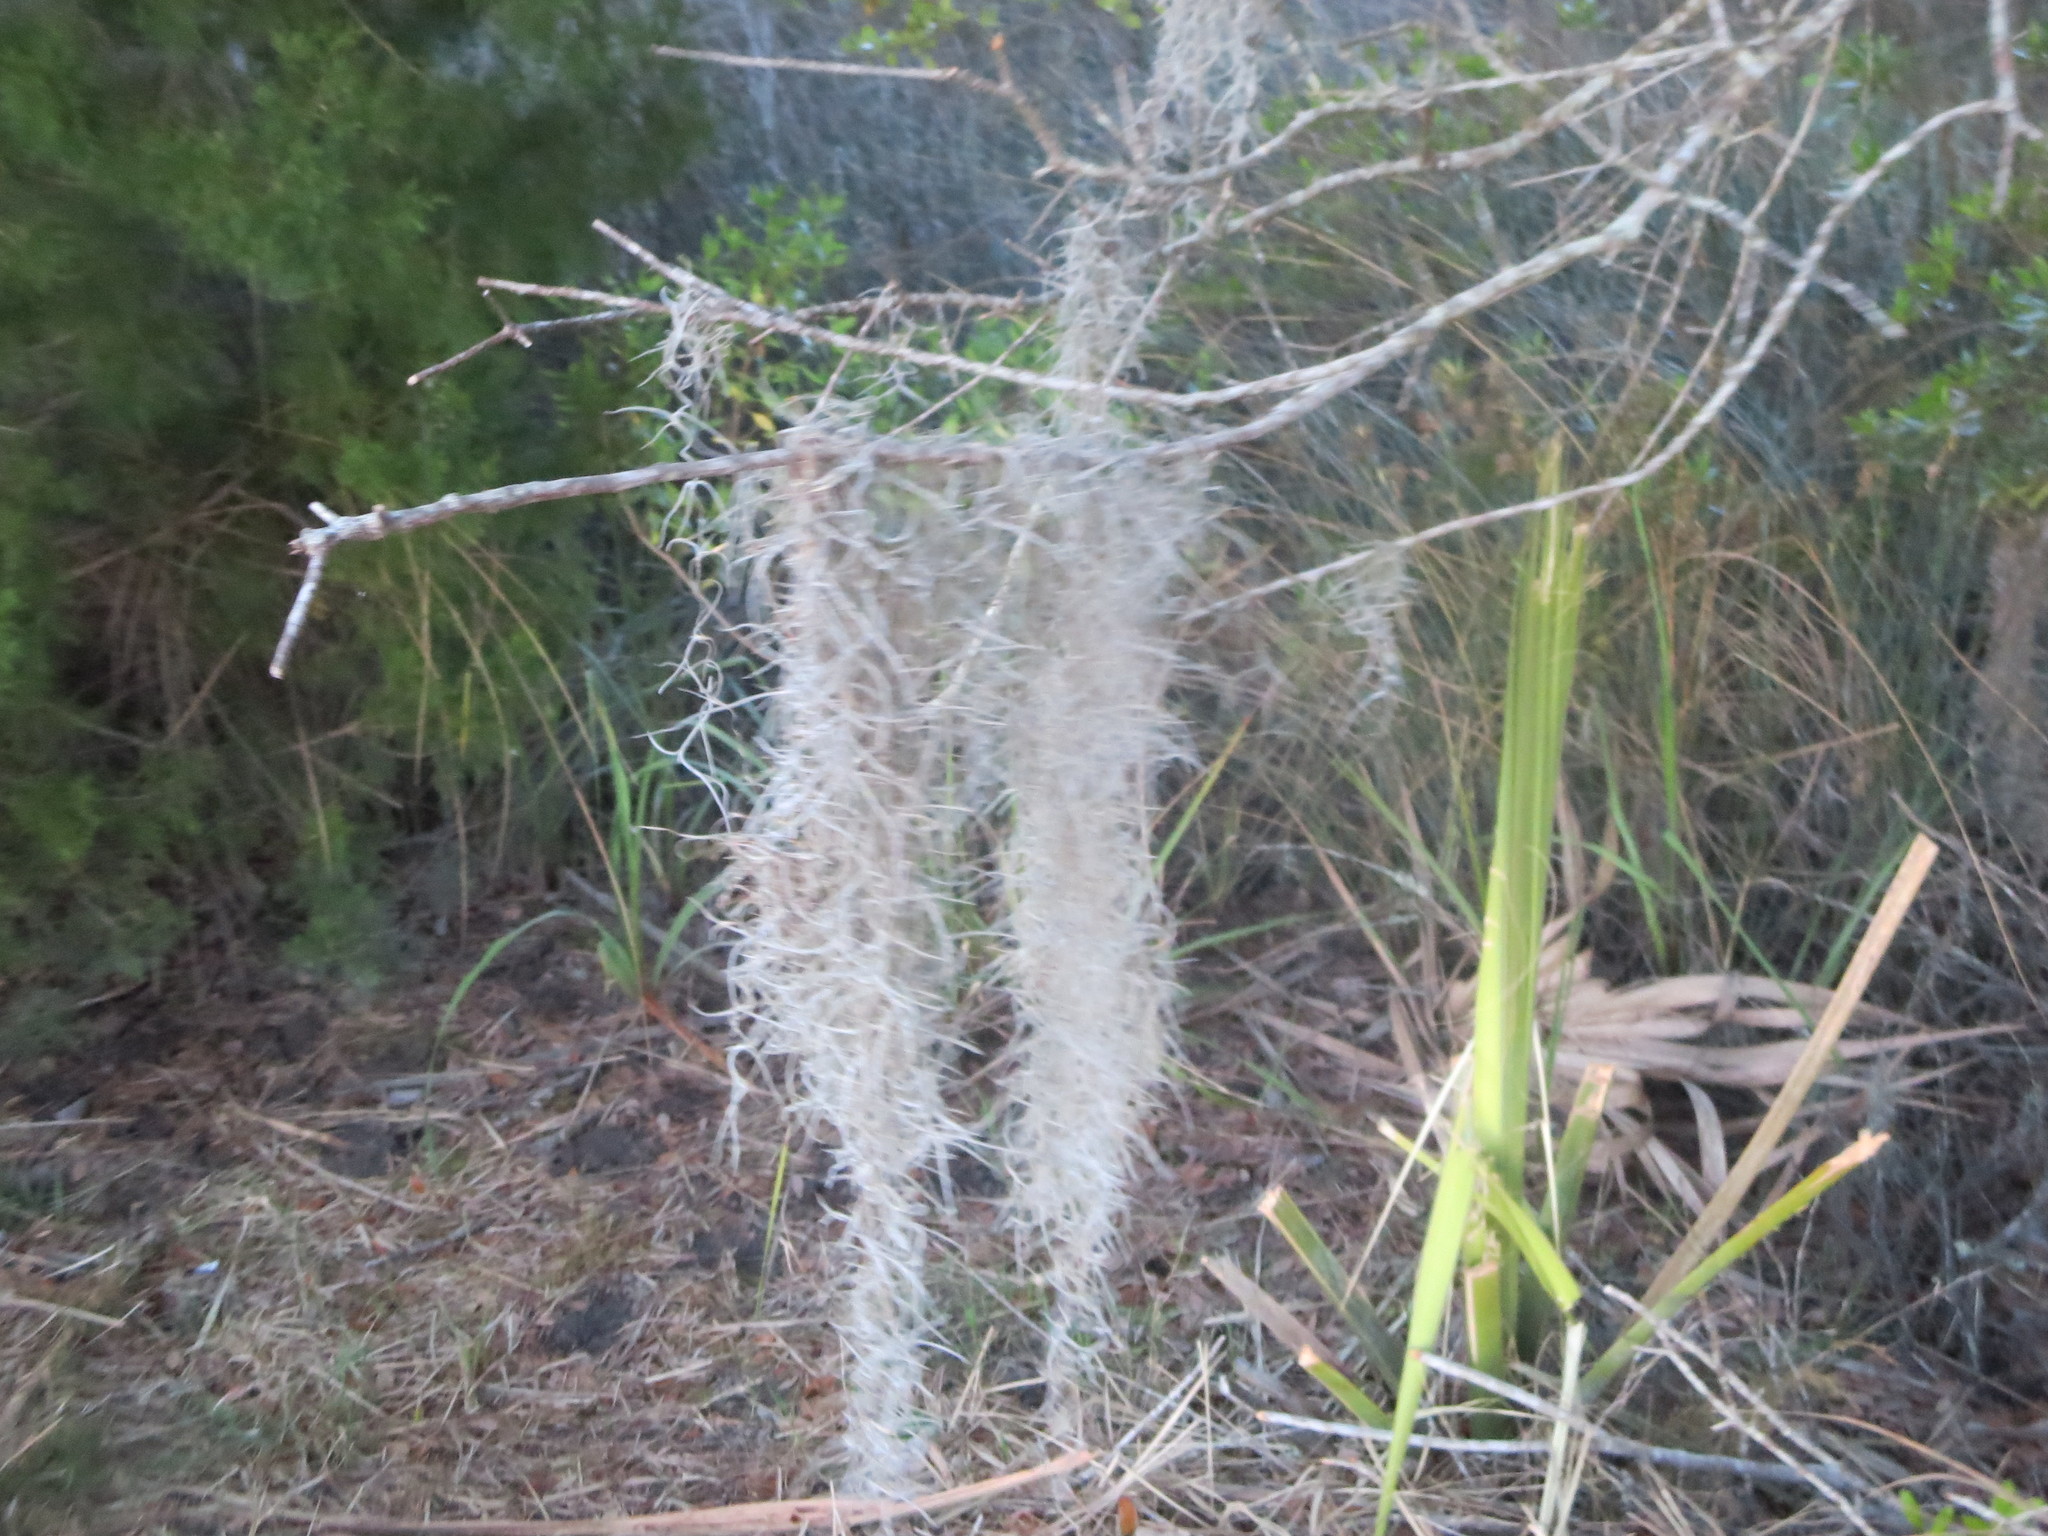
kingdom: Plantae
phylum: Tracheophyta
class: Liliopsida
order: Poales
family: Bromeliaceae
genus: Tillandsia
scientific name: Tillandsia usneoides
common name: Spanish moss
